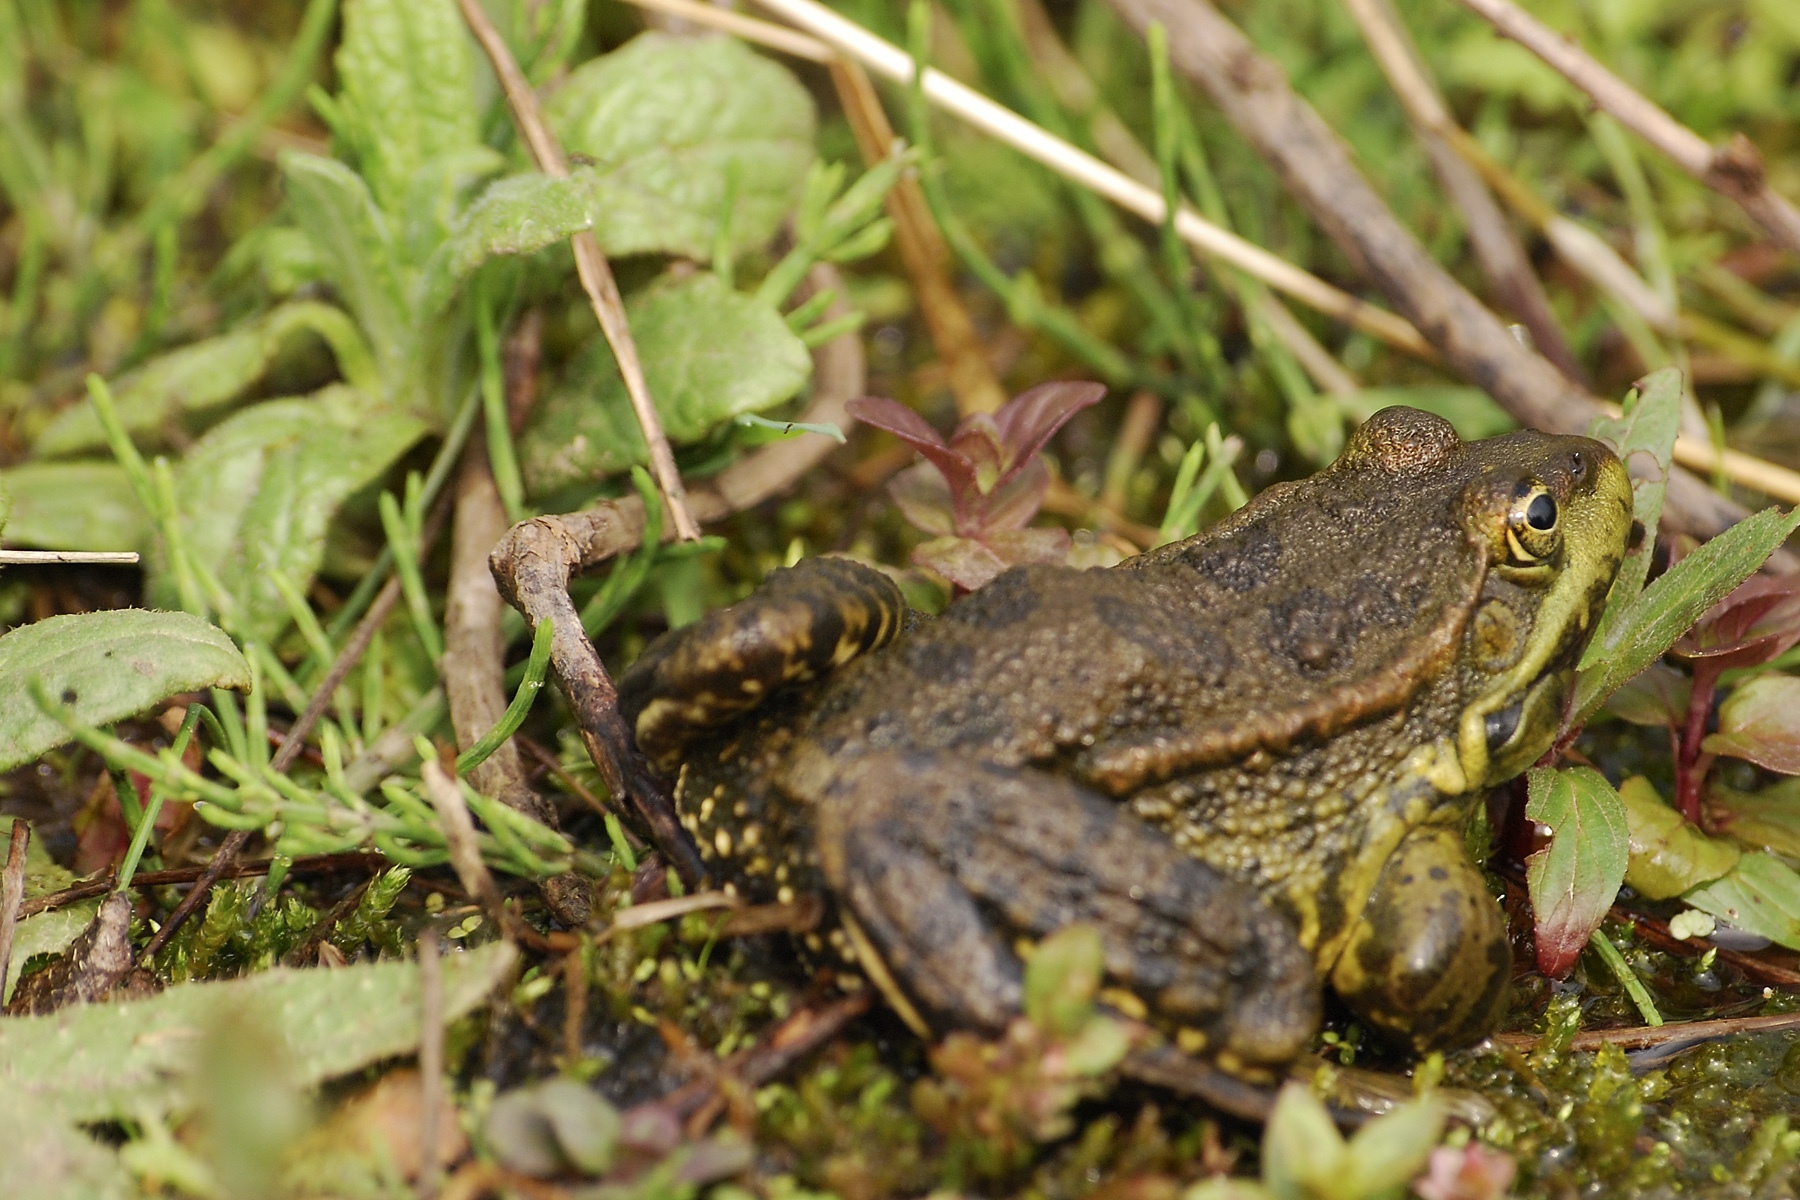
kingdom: Animalia
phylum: Chordata
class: Amphibia
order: Anura
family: Ranidae
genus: Pelophylax
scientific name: Pelophylax ridibundus
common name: Marsh frog
